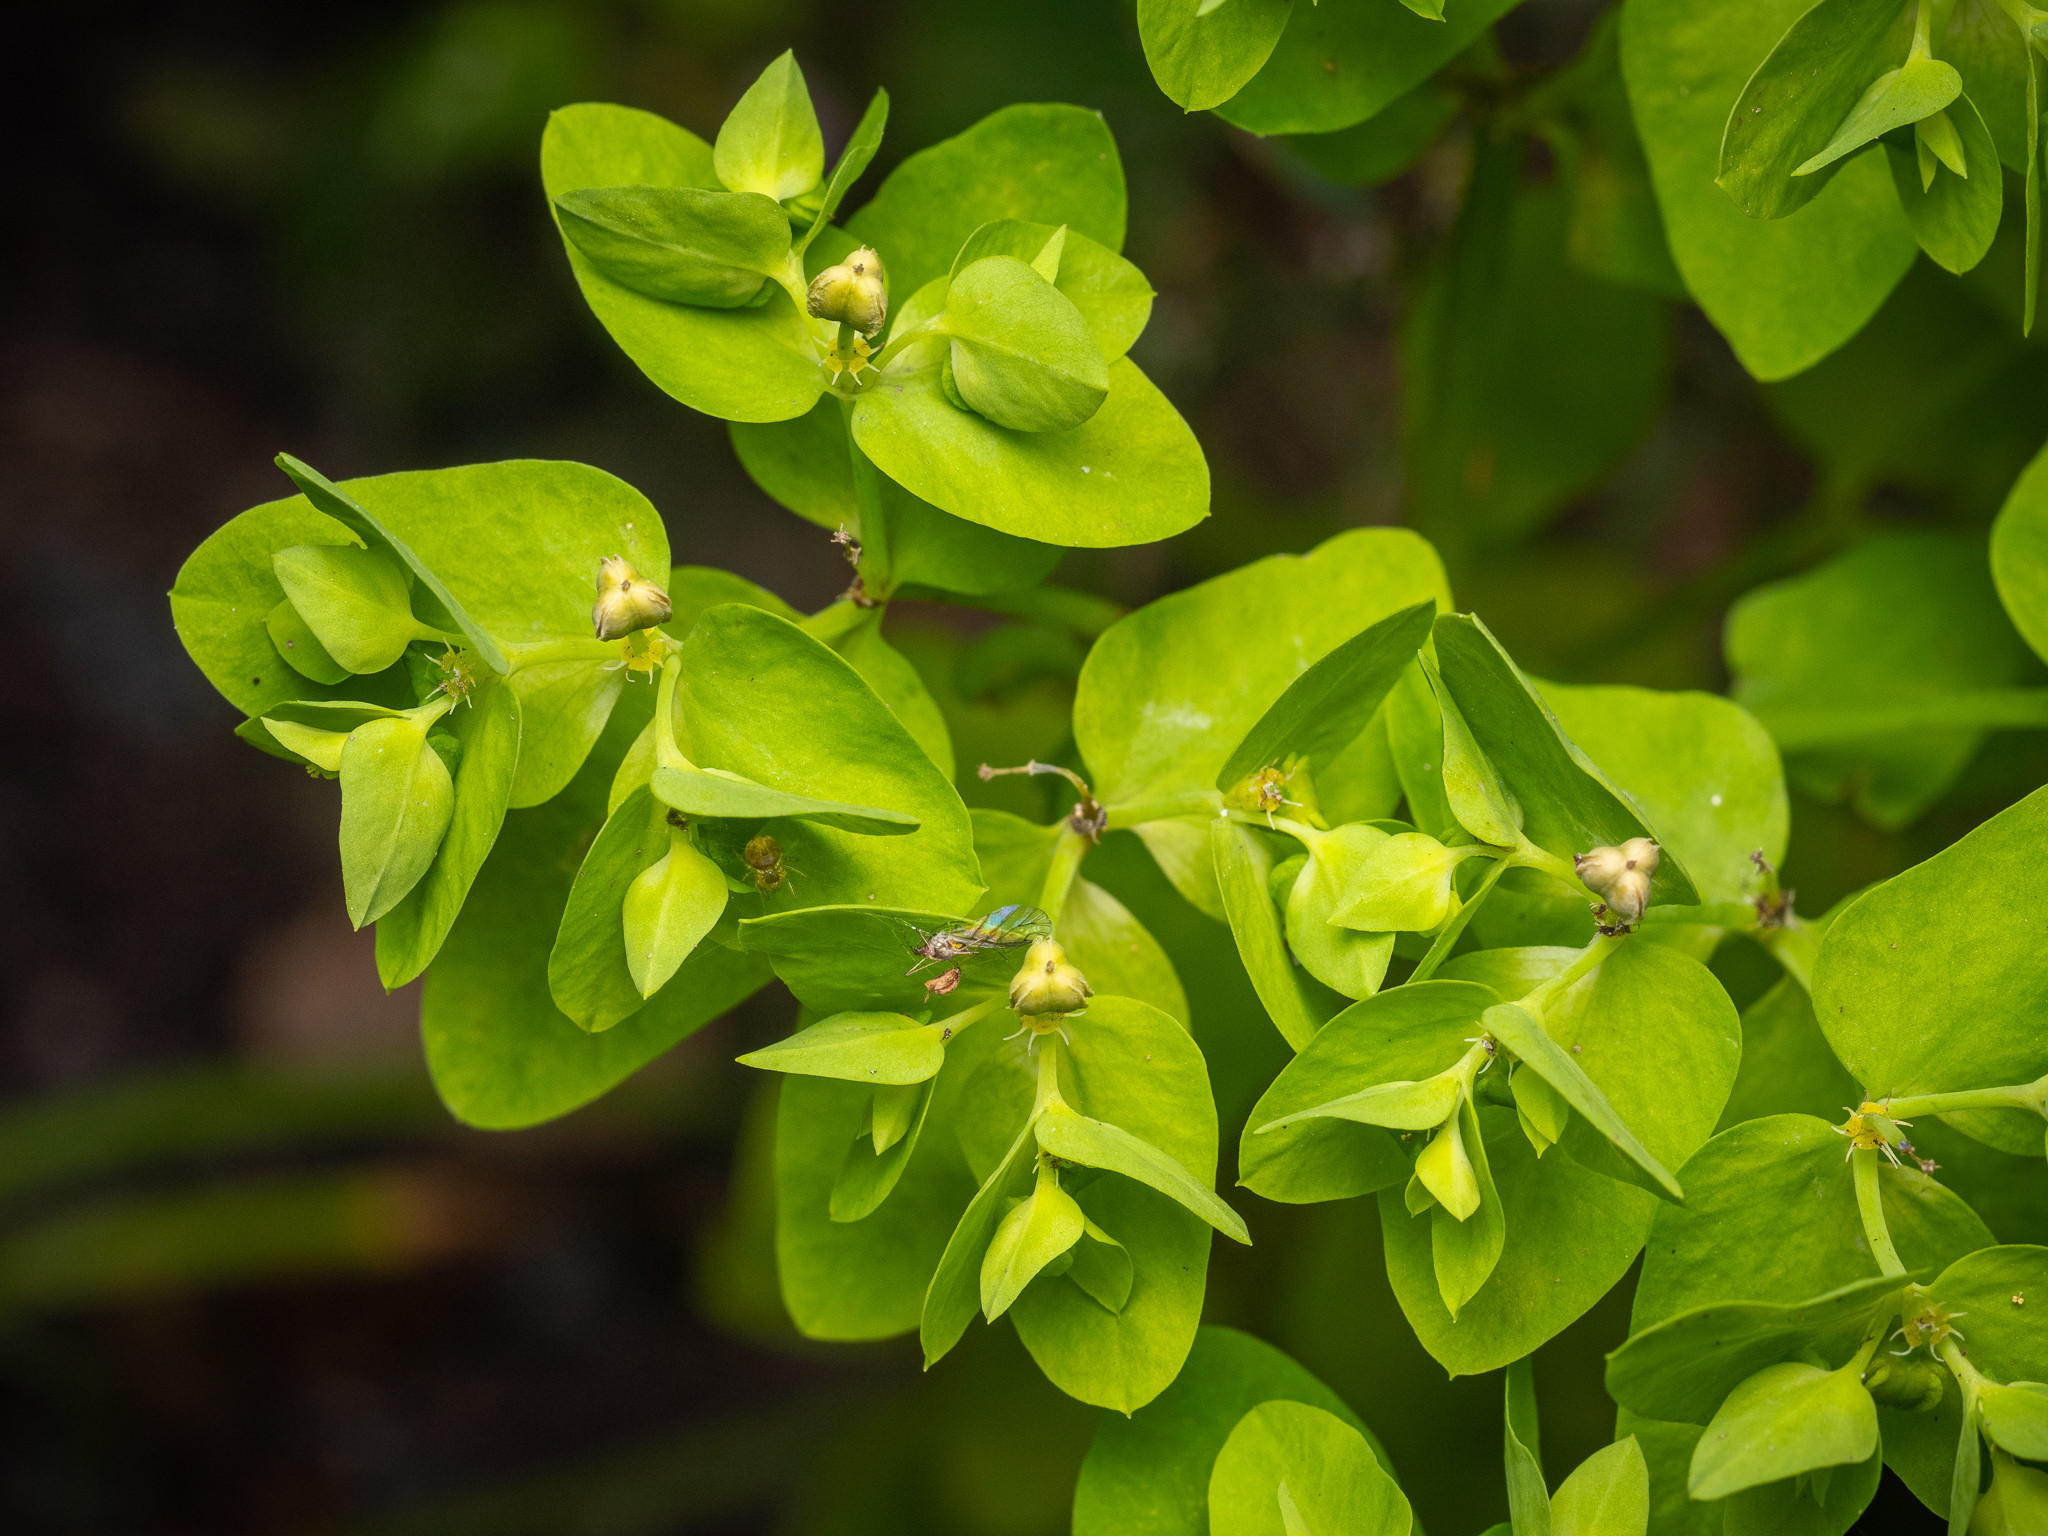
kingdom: Plantae
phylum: Tracheophyta
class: Magnoliopsida
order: Malpighiales
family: Euphorbiaceae
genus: Euphorbia
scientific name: Euphorbia peplus
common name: Petty spurge
